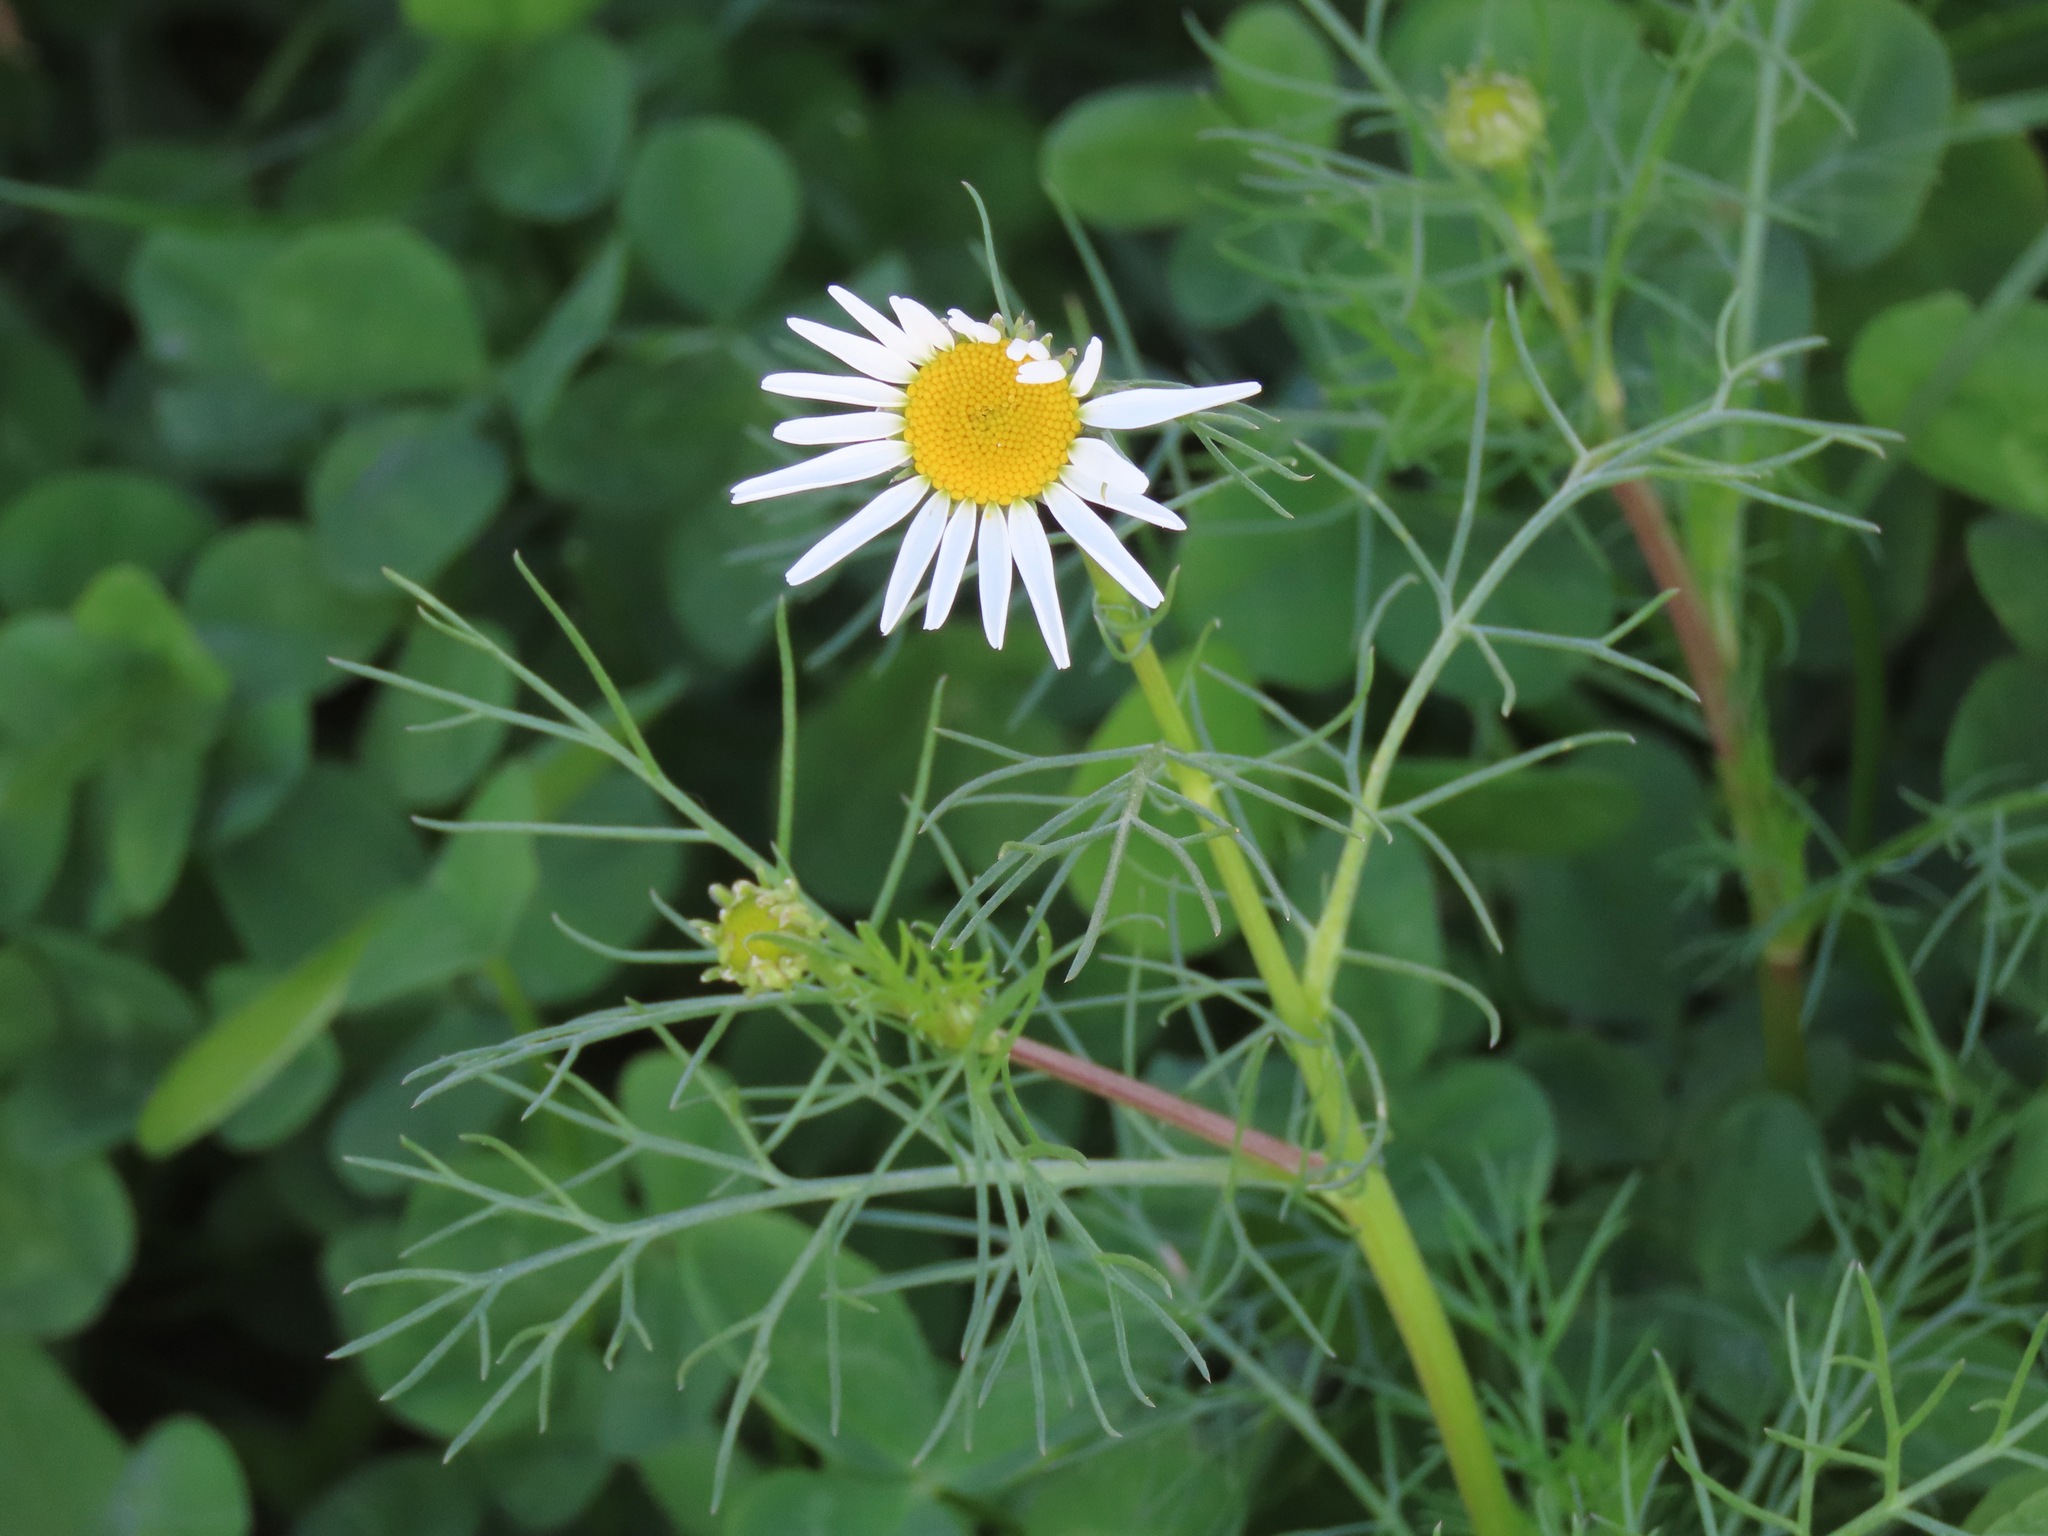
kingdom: Plantae
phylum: Tracheophyta
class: Magnoliopsida
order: Asterales
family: Asteraceae
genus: Tripleurospermum
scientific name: Tripleurospermum inodorum
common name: Scentless mayweed
